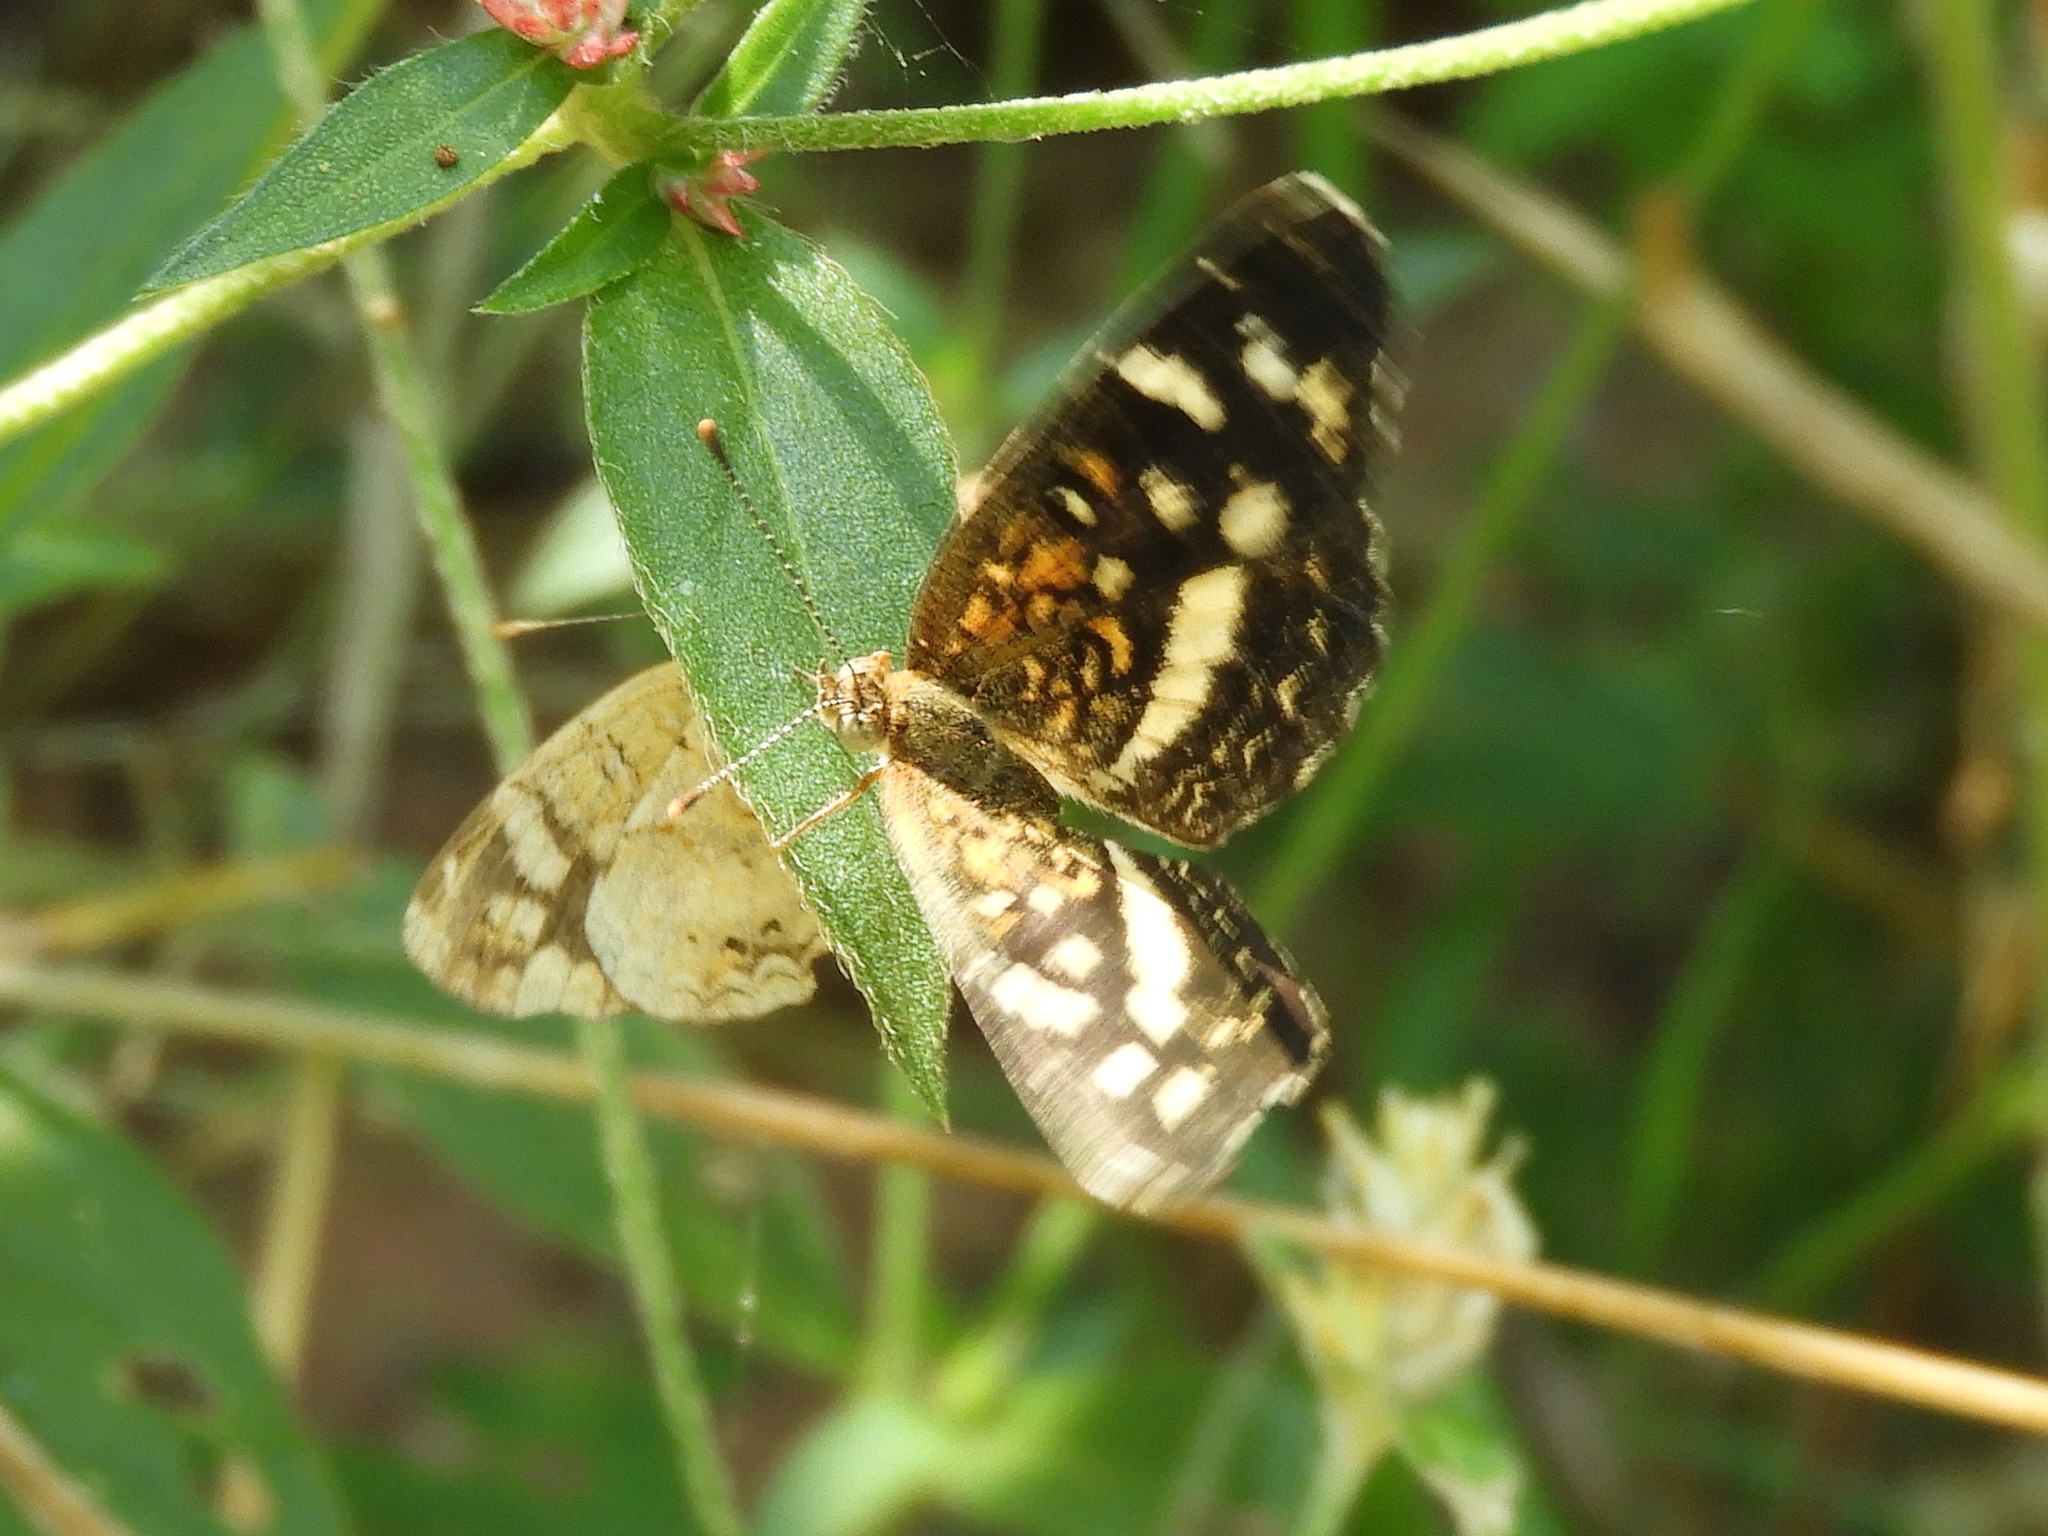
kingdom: Animalia
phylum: Arthropoda
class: Insecta
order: Lepidoptera
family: Nymphalidae
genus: Anthanassa
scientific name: Anthanassa
